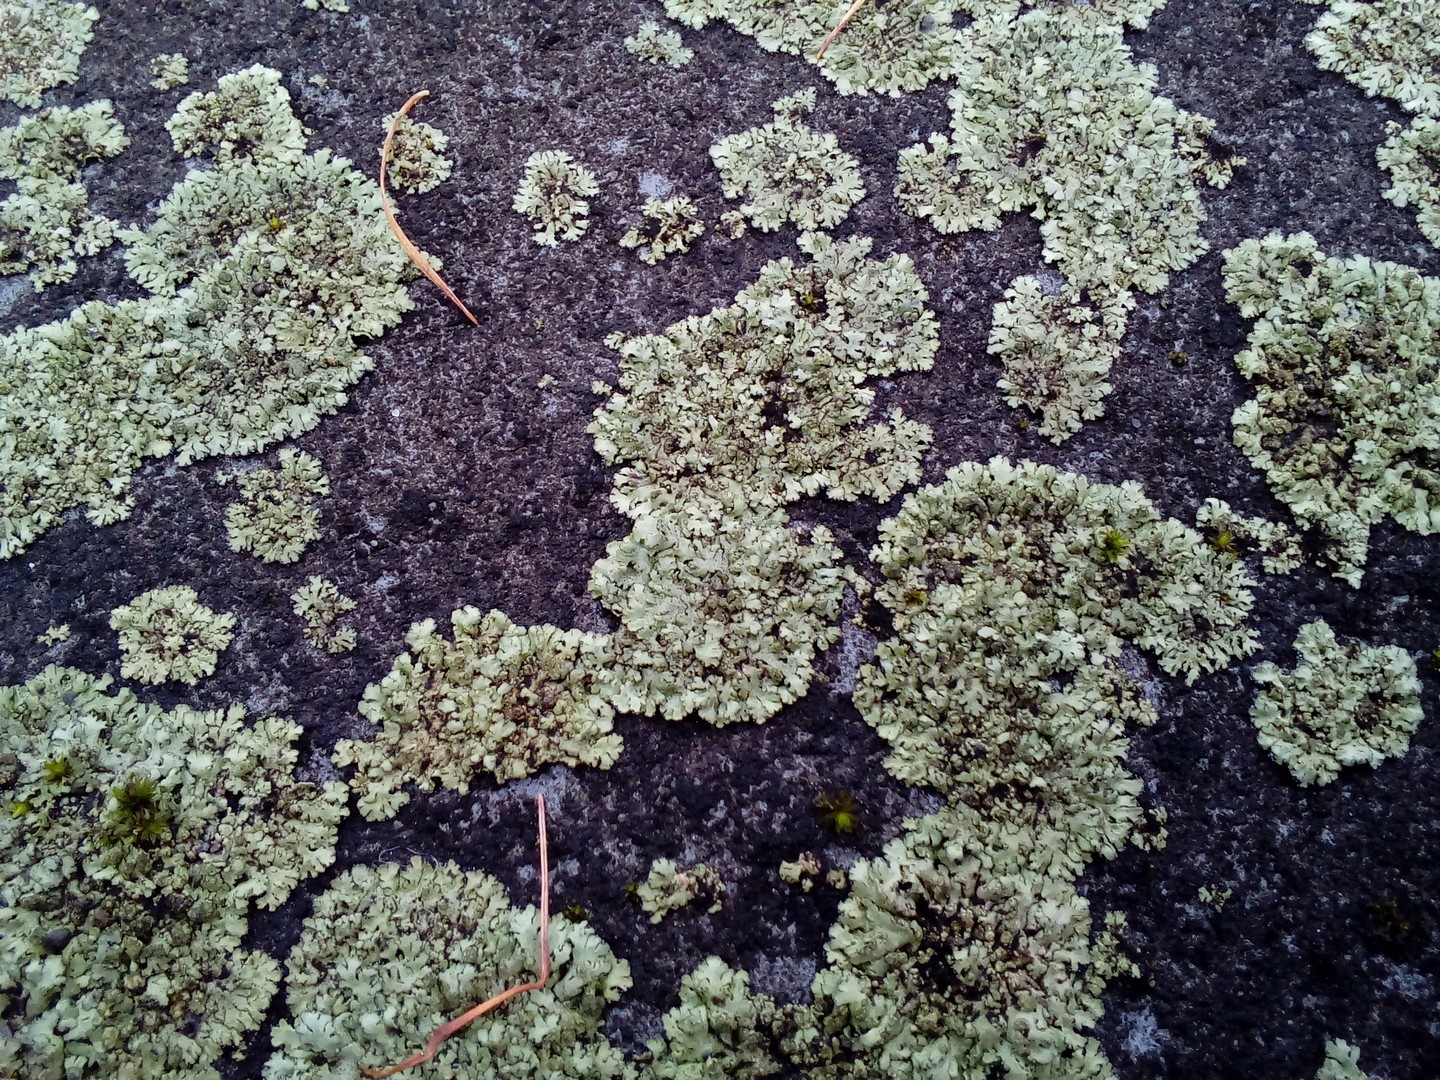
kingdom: Fungi
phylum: Ascomycota
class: Lecanoromycetes
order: Caliciales
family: Physciaceae
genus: Phaeophyscia
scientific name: Phaeophyscia orbicularis
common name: Mealy shadow lichen
